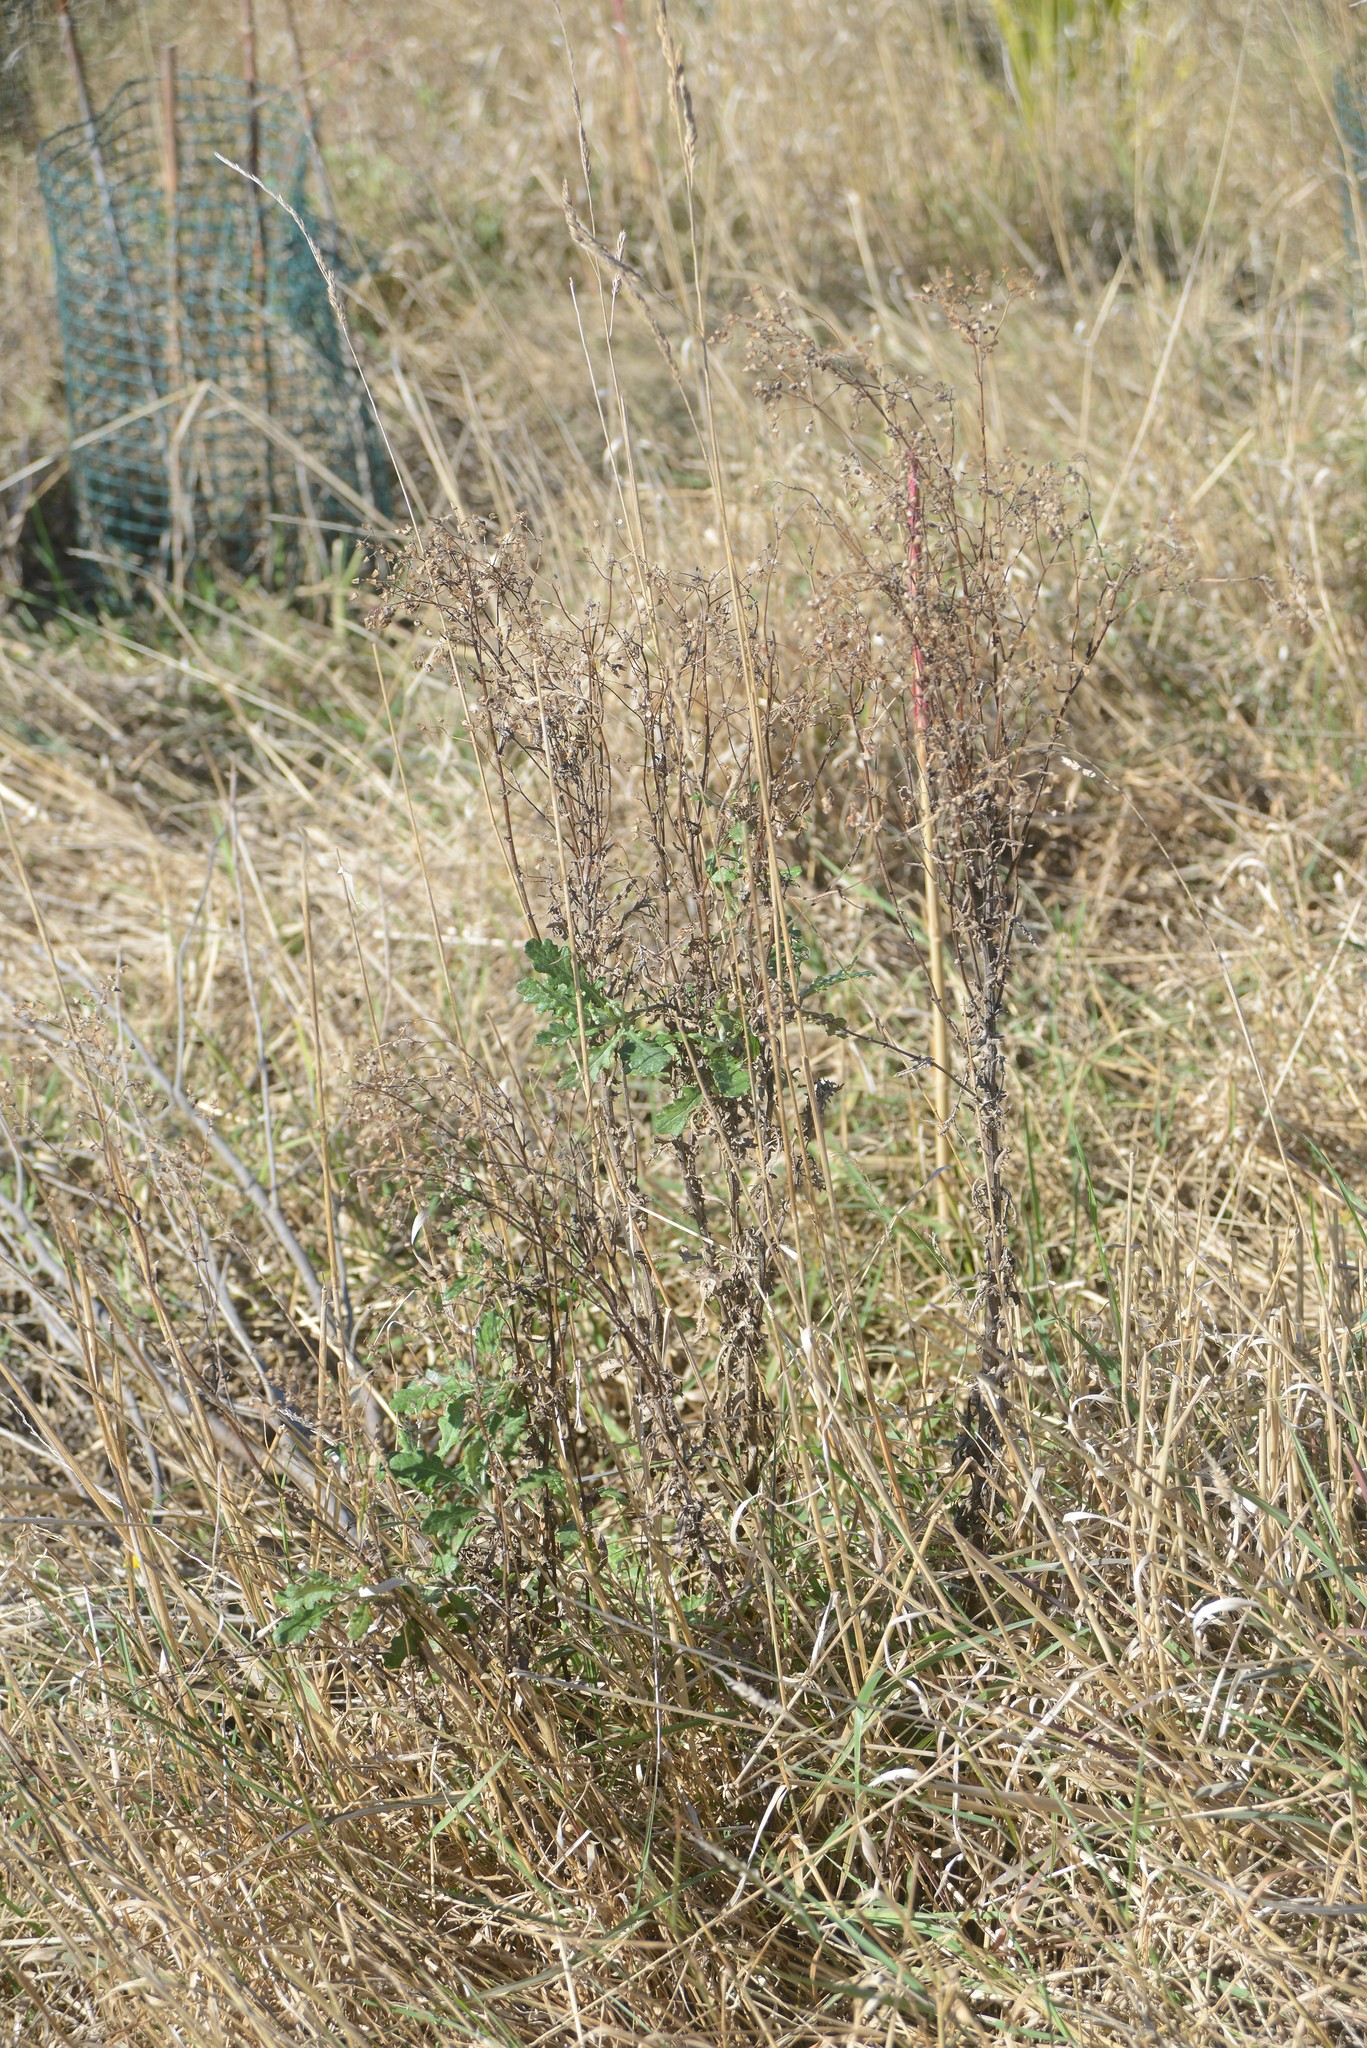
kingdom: Plantae
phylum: Tracheophyta
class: Magnoliopsida
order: Asterales
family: Asteraceae
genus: Senecio
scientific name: Senecio glomeratus
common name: Cutleaf burnweed
